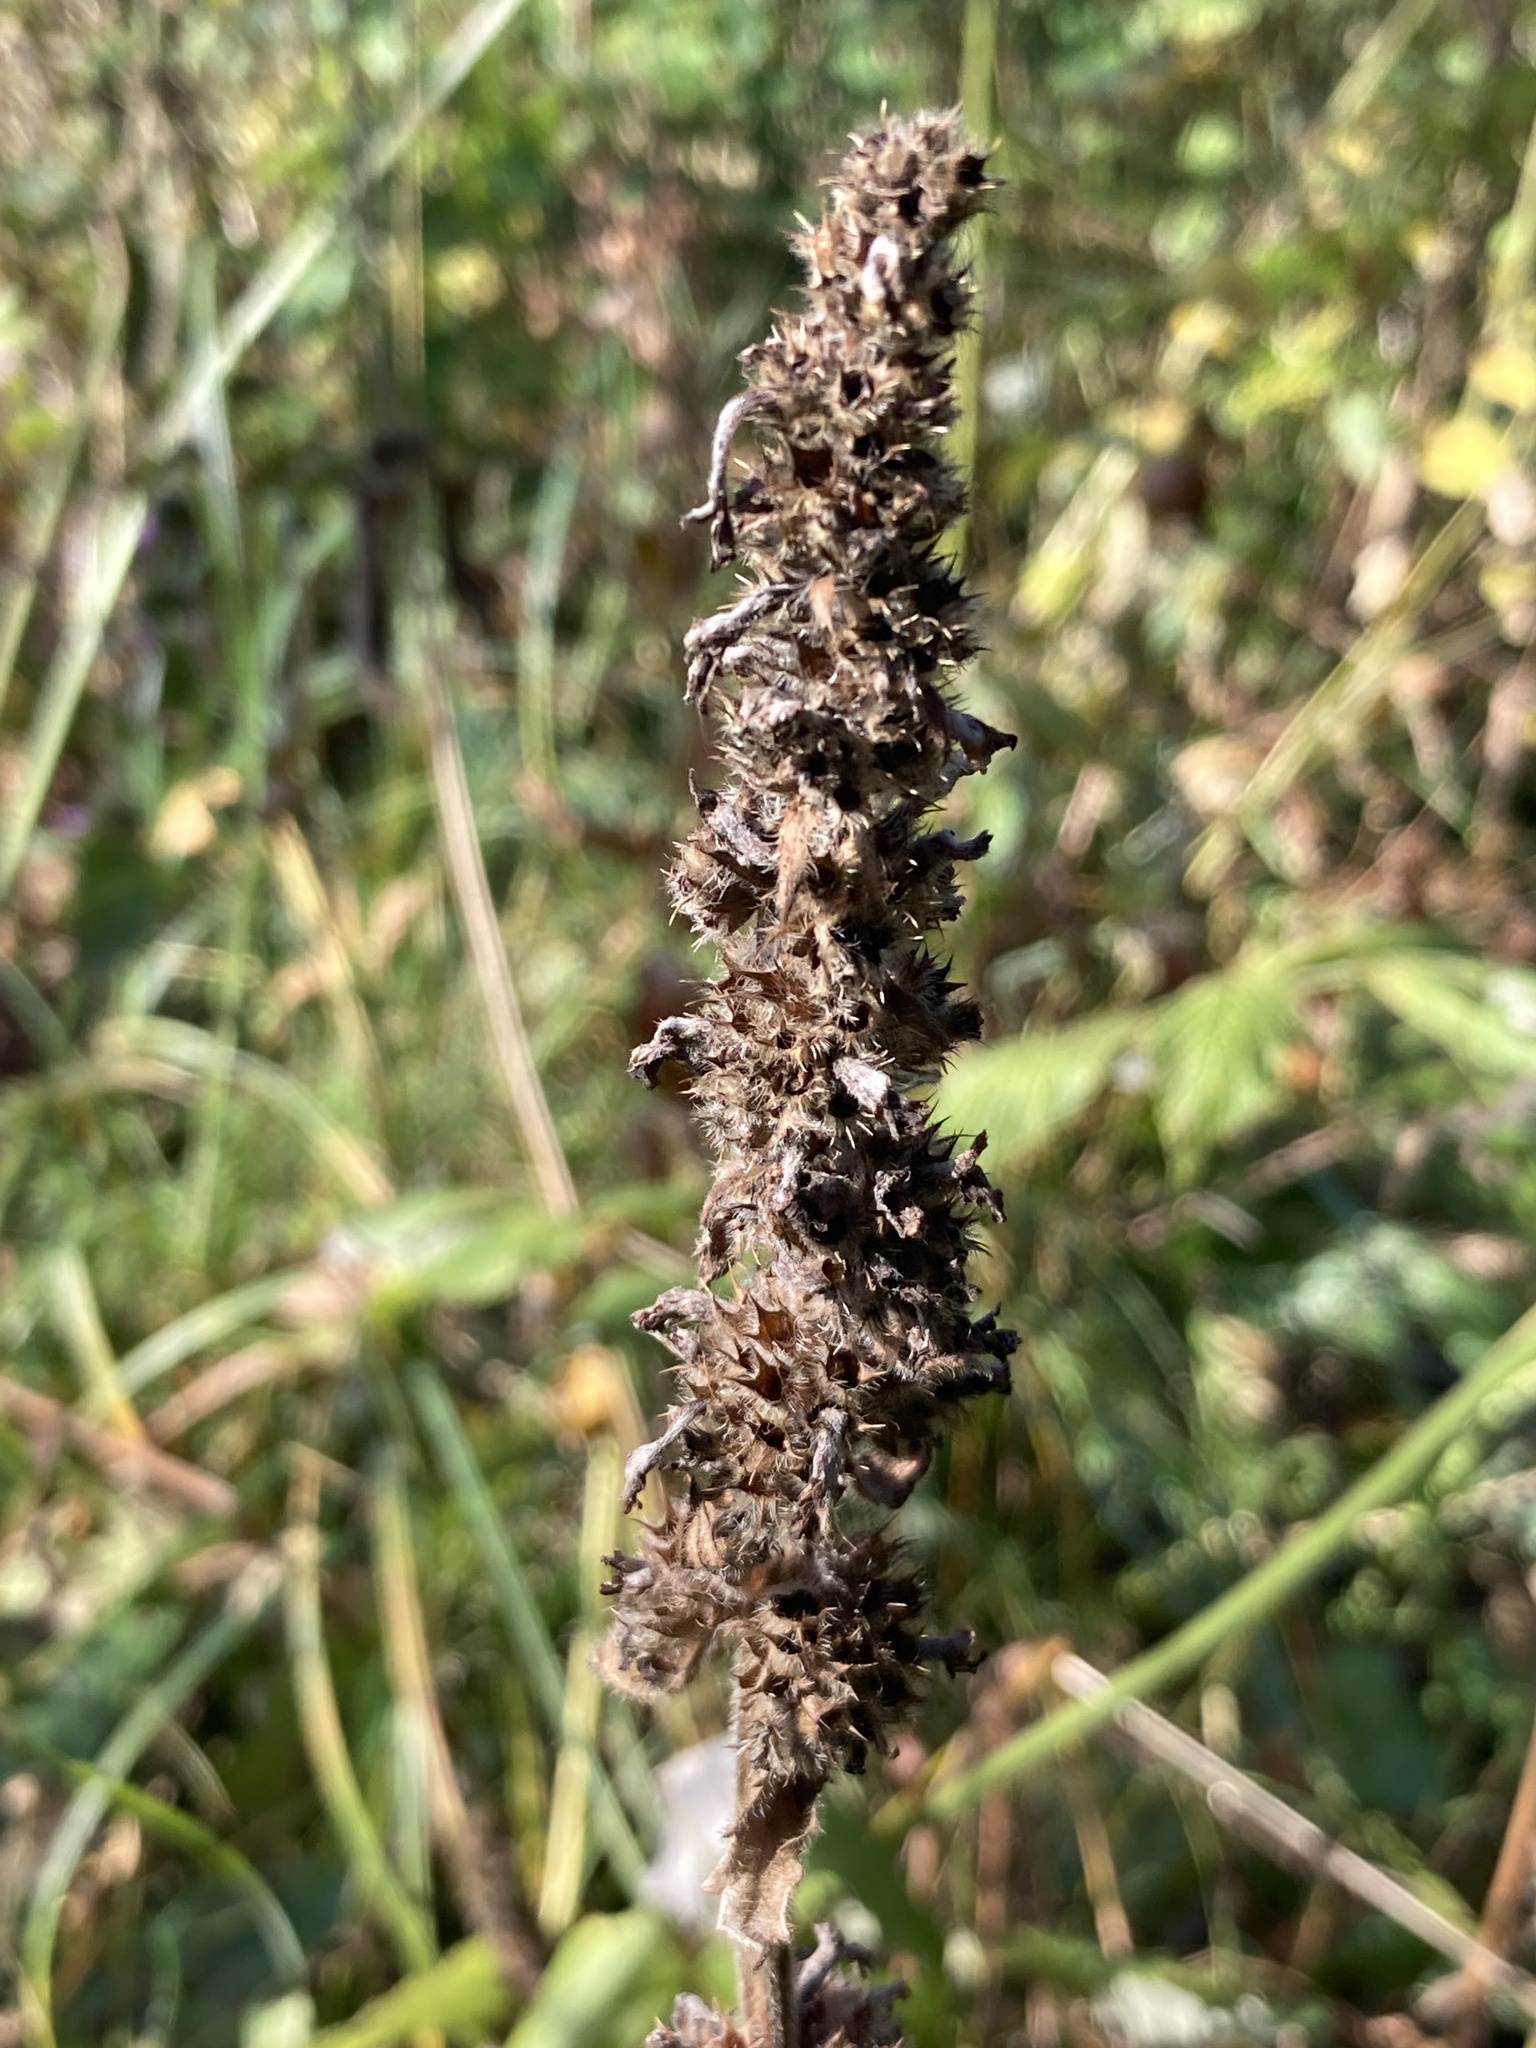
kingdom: Plantae
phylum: Tracheophyta
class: Magnoliopsida
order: Lamiales
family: Lamiaceae
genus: Betonica
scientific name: Betonica officinalis
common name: Bishop's-wort
